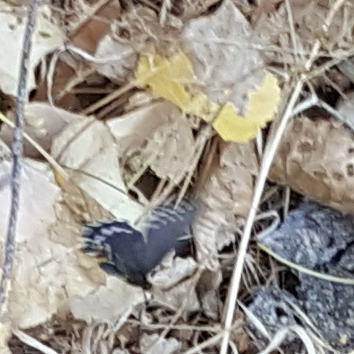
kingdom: Animalia
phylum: Arthropoda
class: Insecta
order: Lepidoptera
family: Papilionidae
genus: Battus
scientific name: Battus philenor
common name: Pipevine swallowtail
